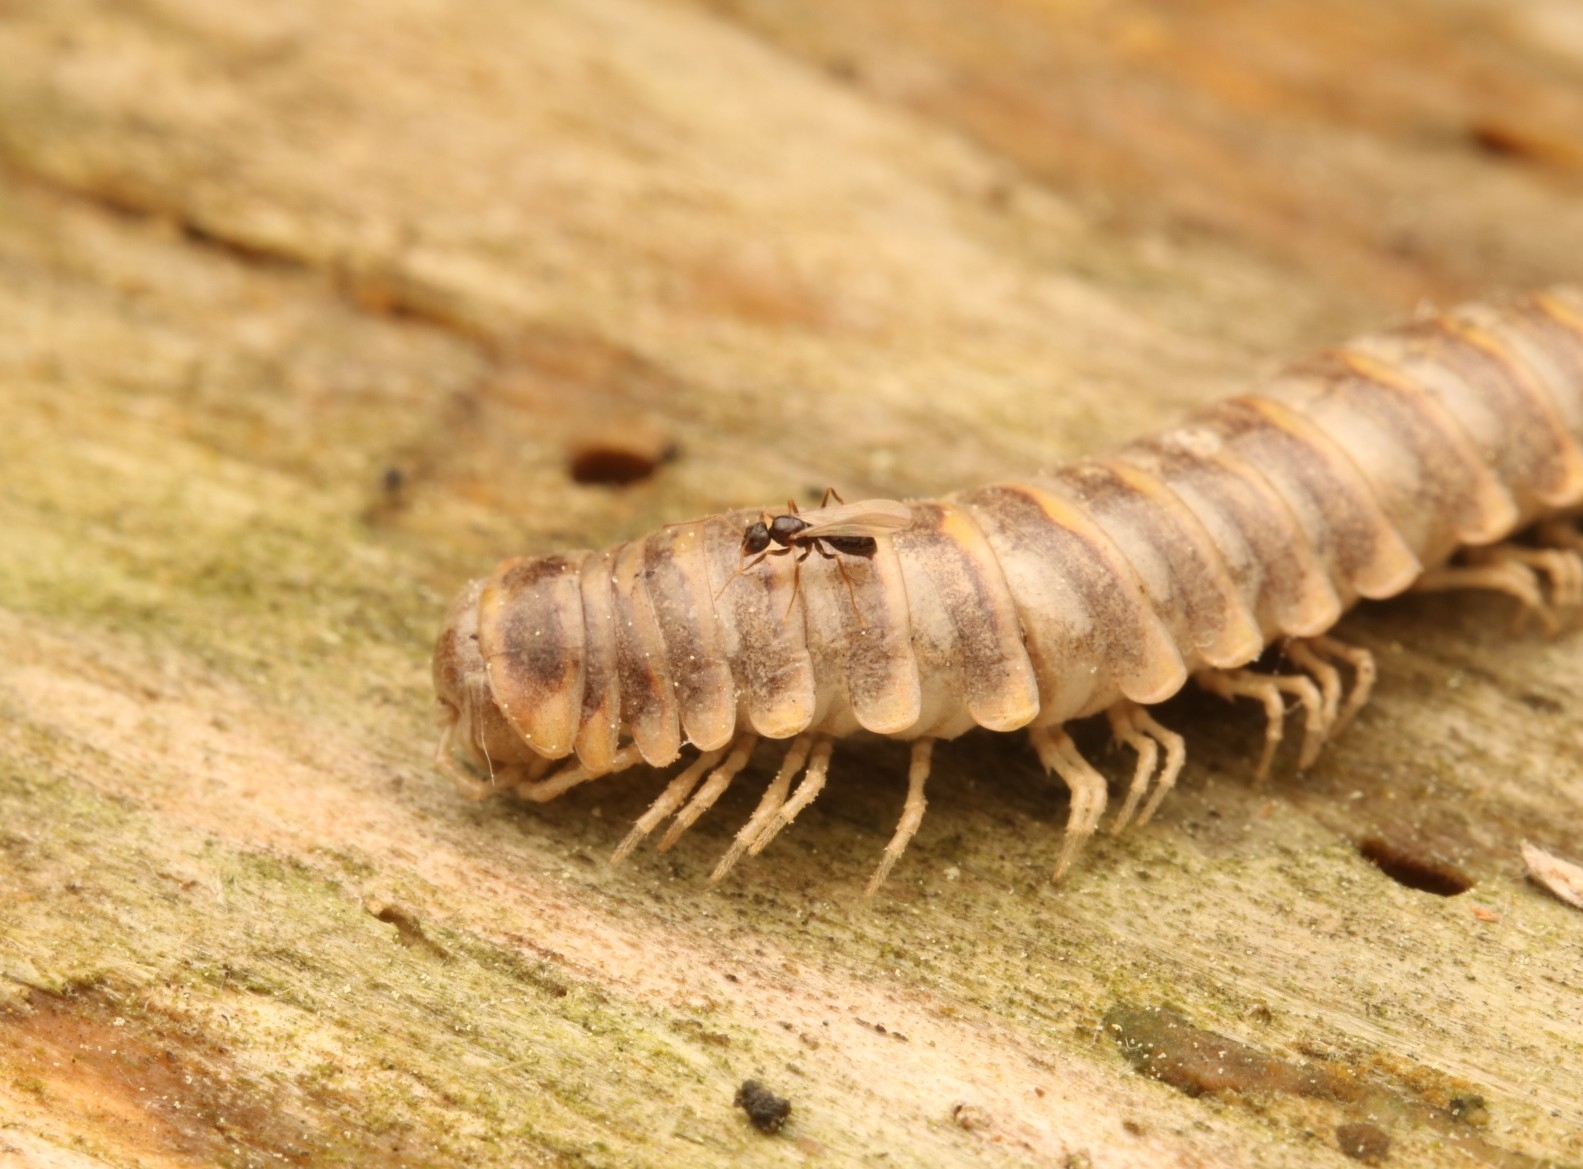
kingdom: Animalia
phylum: Arthropoda
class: Insecta
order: Hymenoptera
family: Formicidae
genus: Paratrechina
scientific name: Paratrechina flavipes
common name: Eastern asian formicine ant
